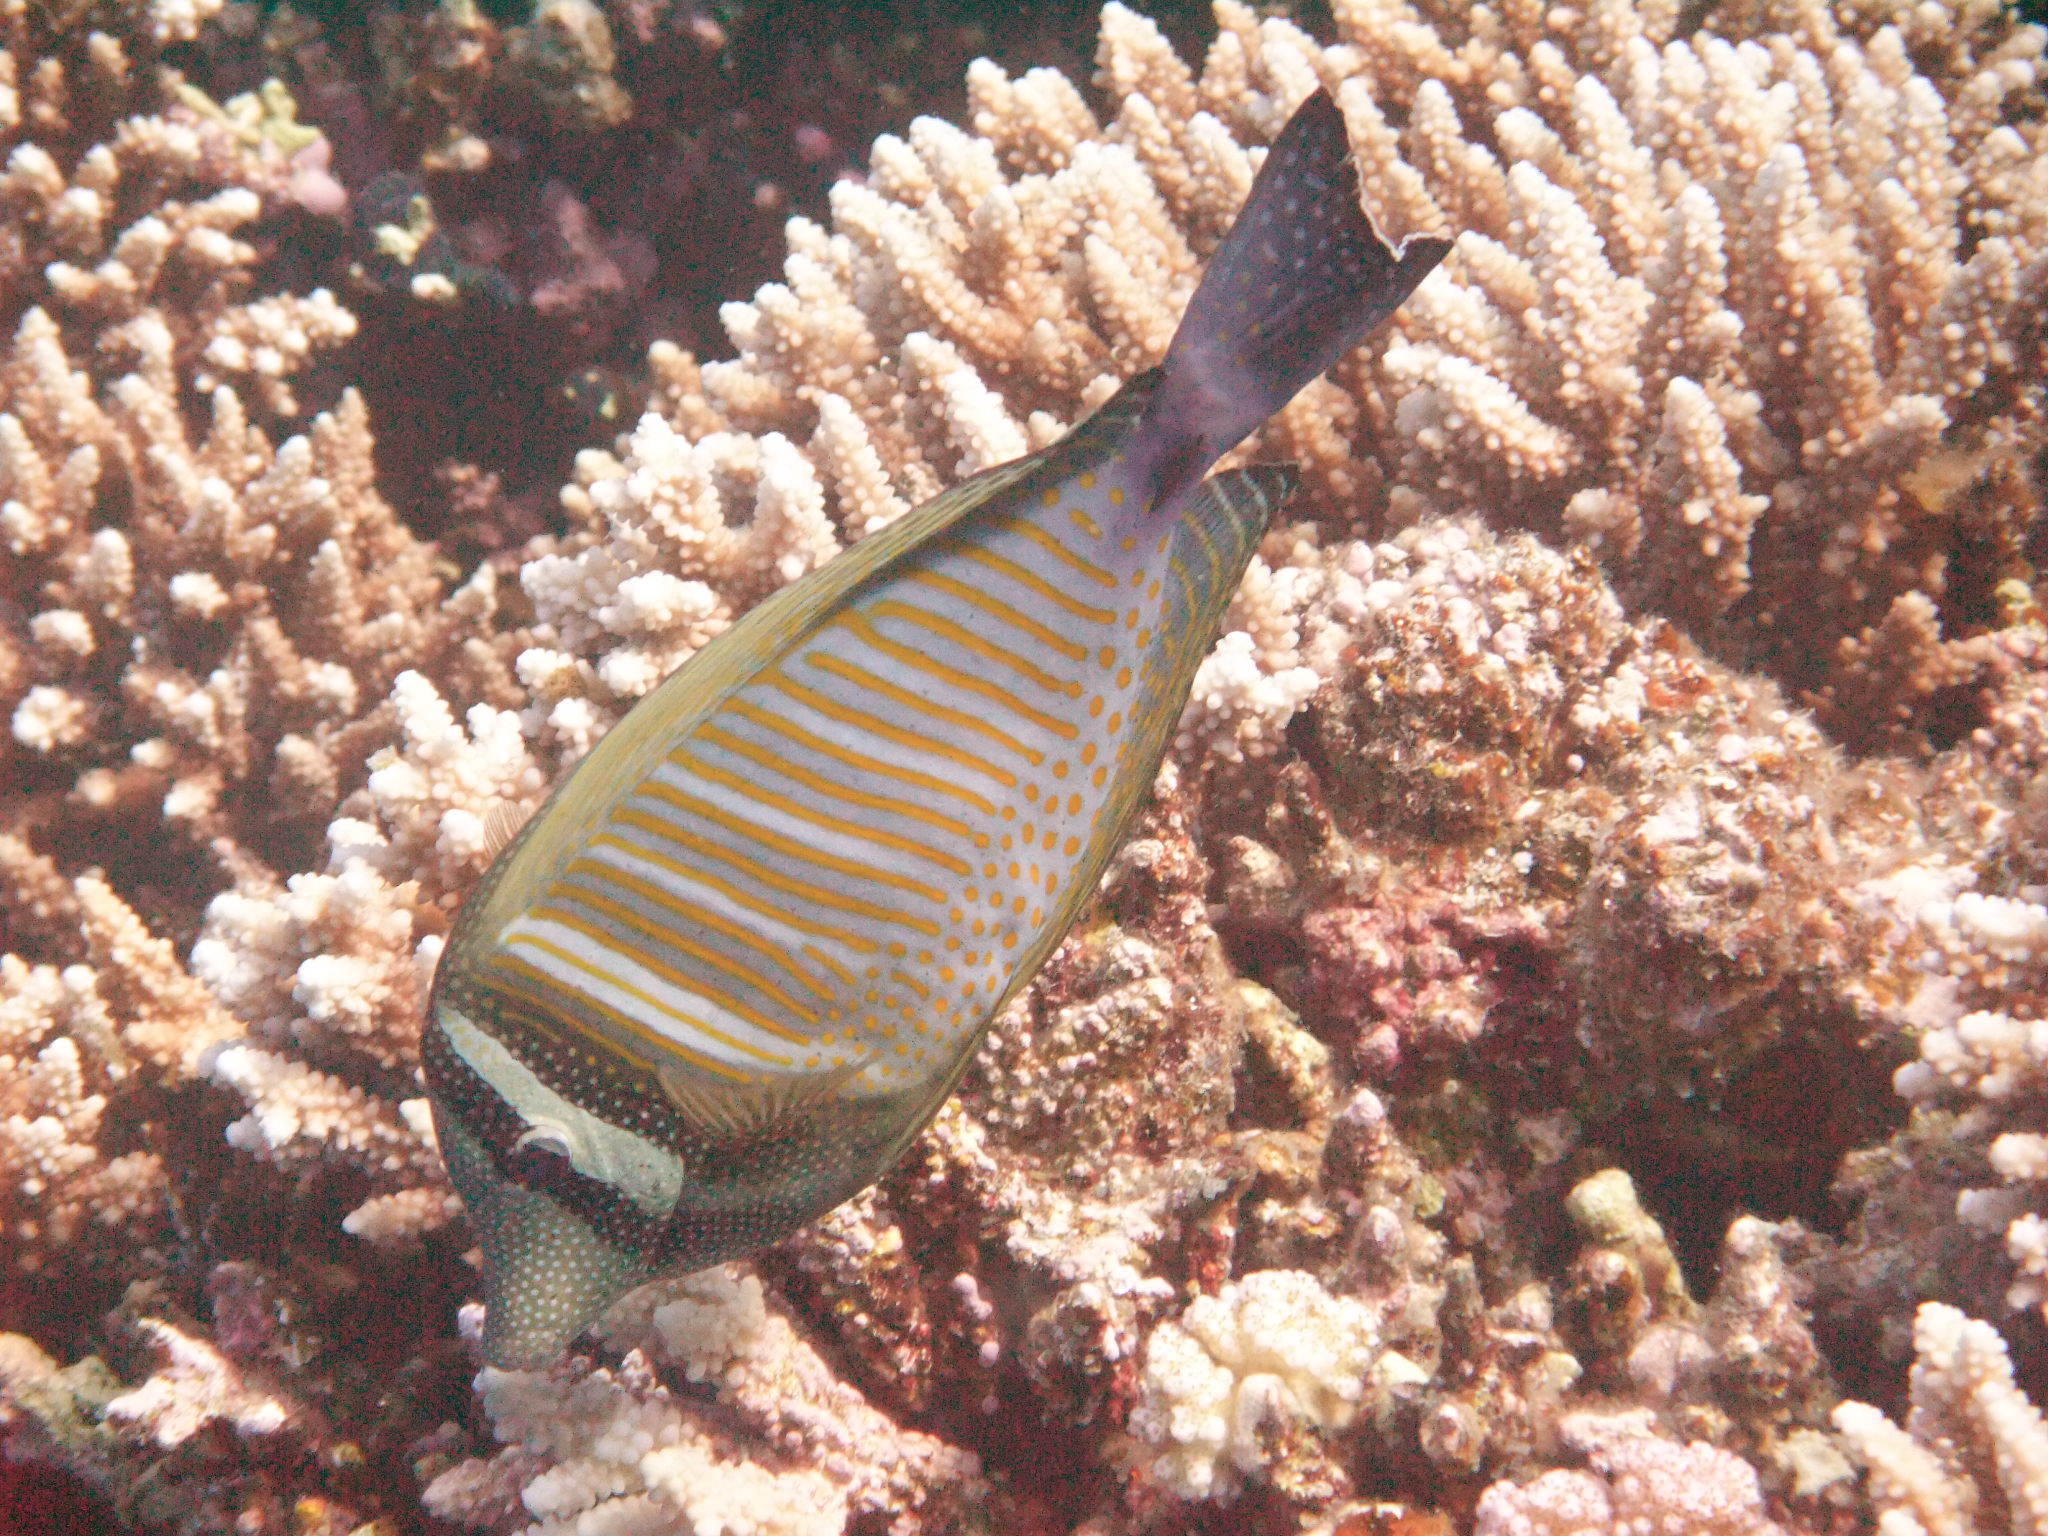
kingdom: Animalia
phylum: Chordata
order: Perciformes
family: Acanthuridae
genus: Zebrasoma
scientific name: Zebrasoma desjardinii
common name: Desjardin's sailfin tang
